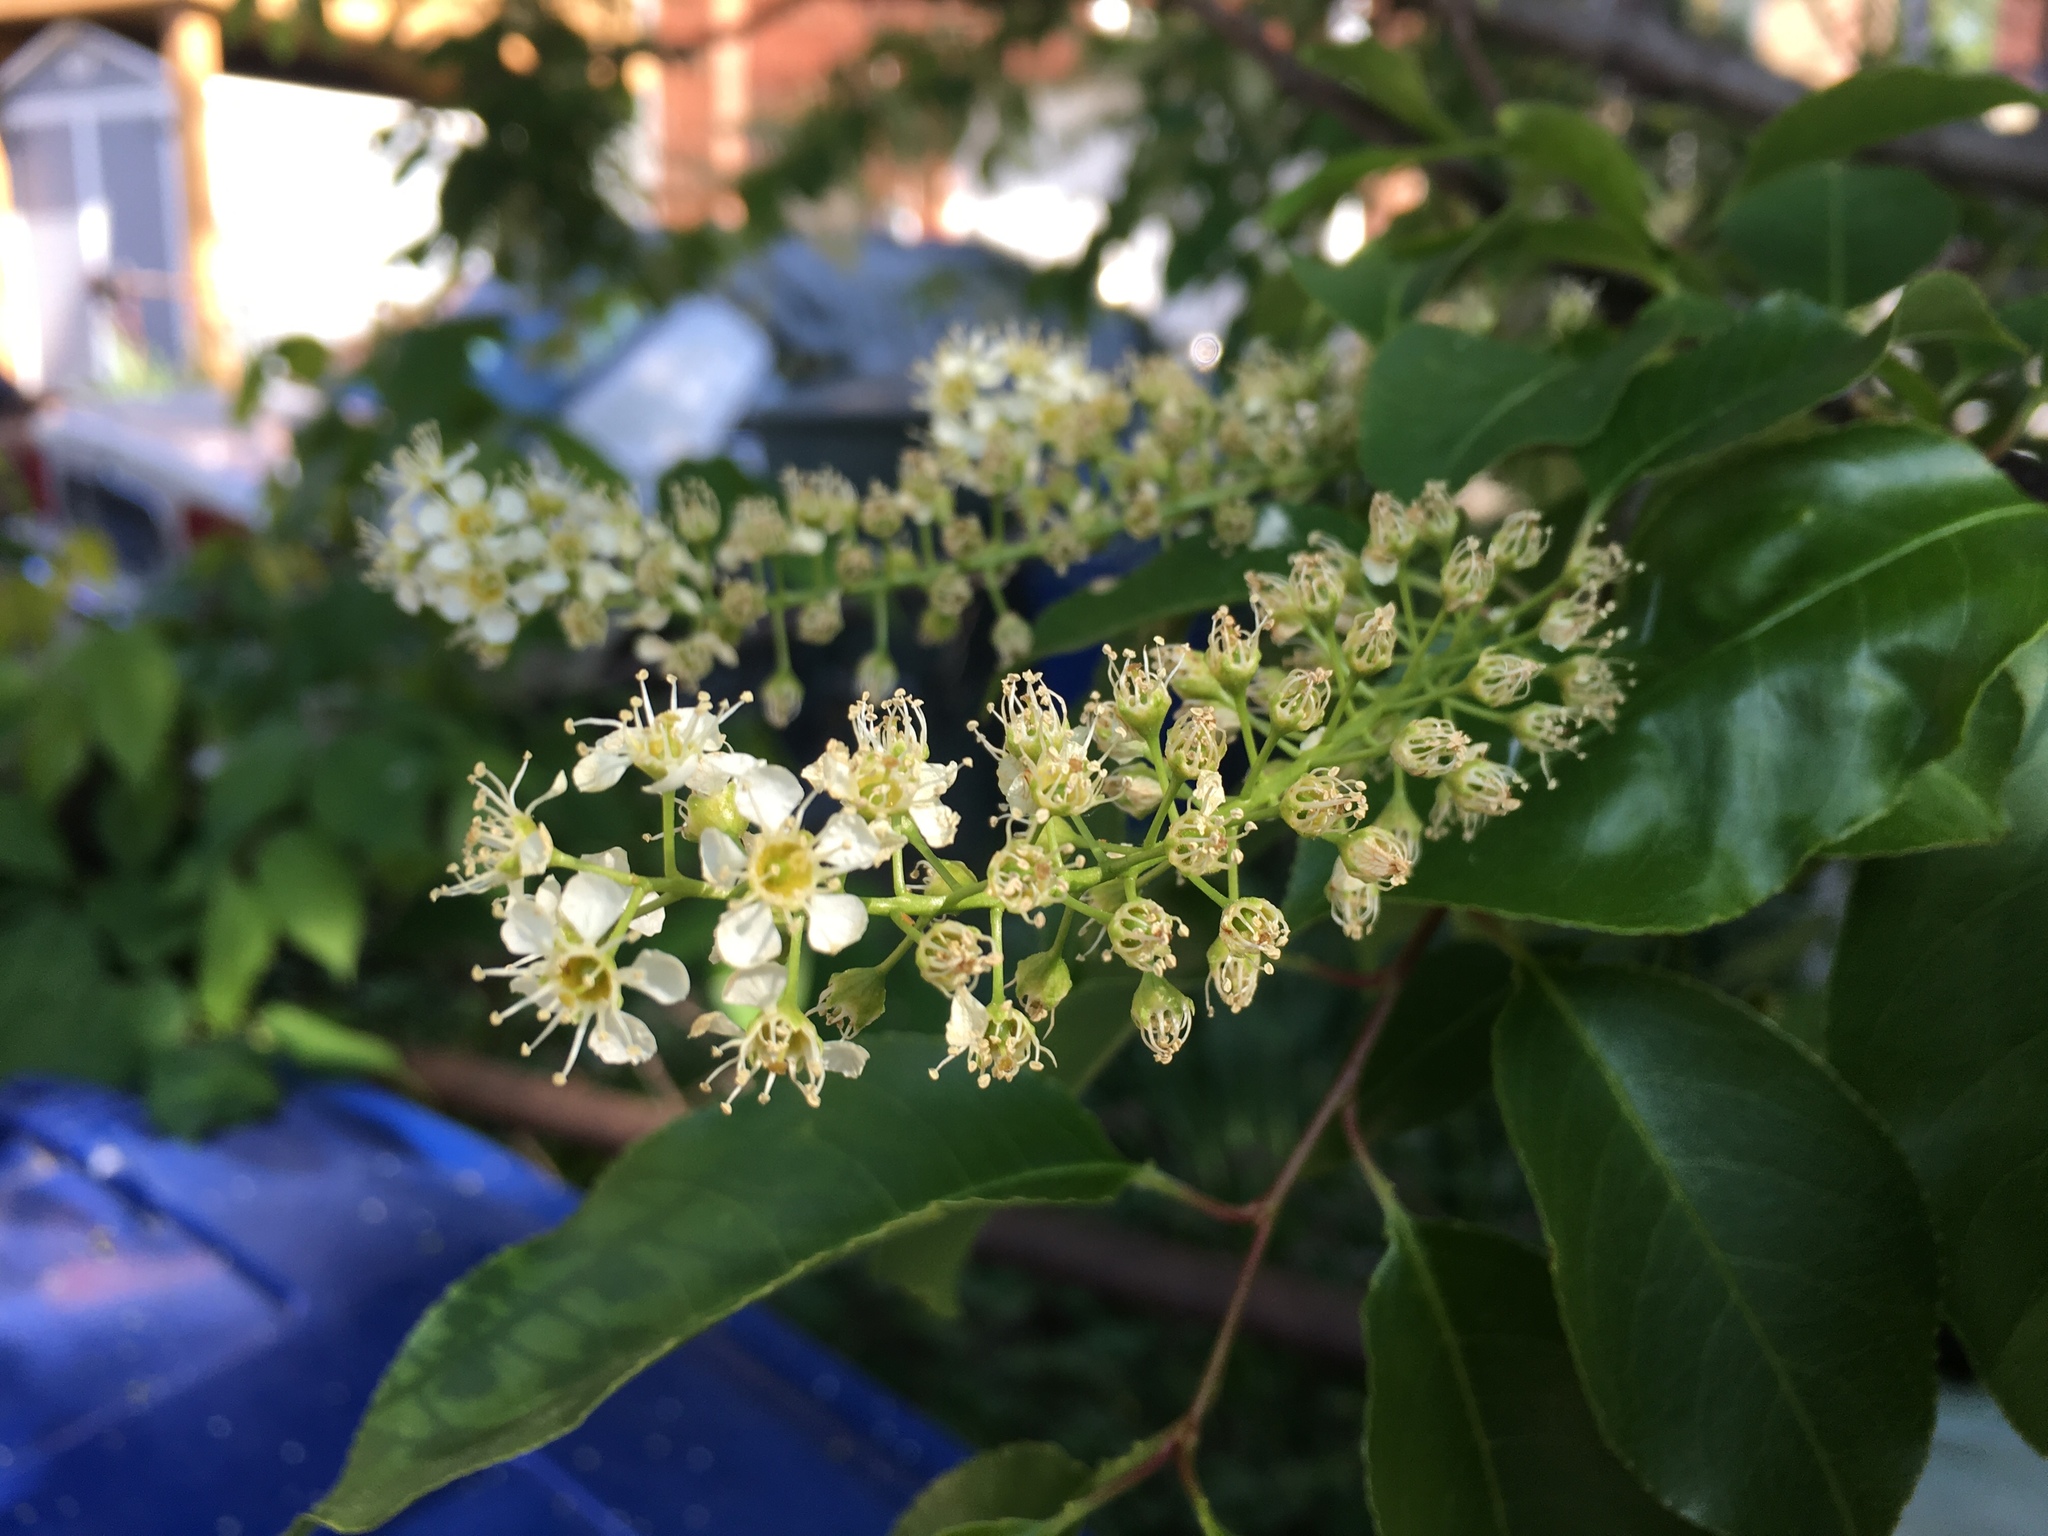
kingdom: Plantae
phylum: Tracheophyta
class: Magnoliopsida
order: Rosales
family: Rosaceae
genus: Prunus
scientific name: Prunus serotina
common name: Black cherry
